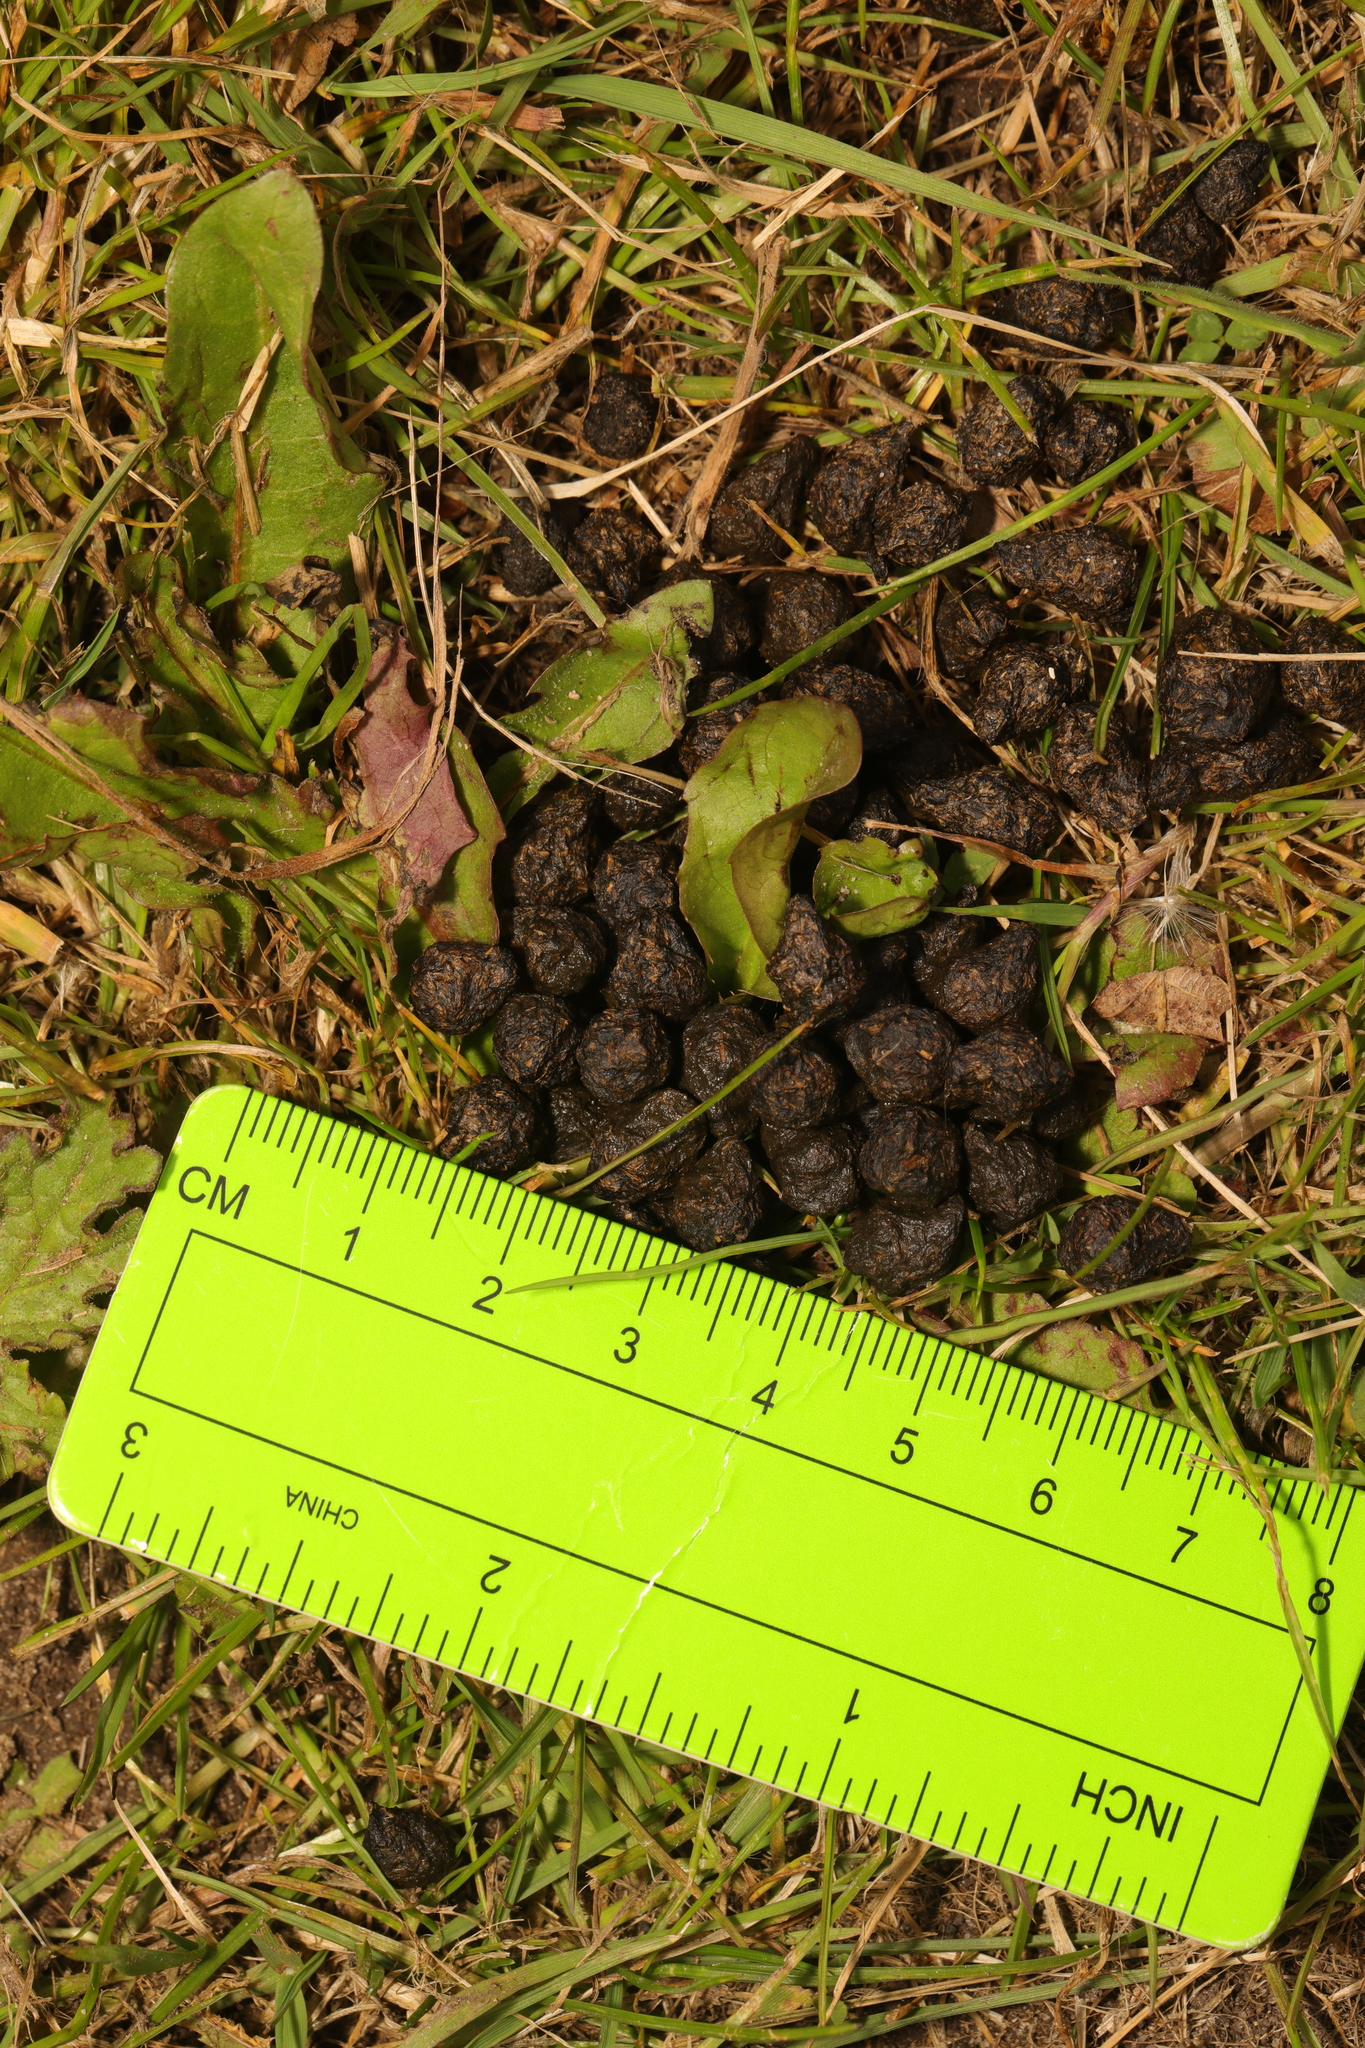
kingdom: Animalia
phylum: Chordata
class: Mammalia
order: Lagomorpha
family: Leporidae
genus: Oryctolagus
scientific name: Oryctolagus cuniculus
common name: European rabbit
